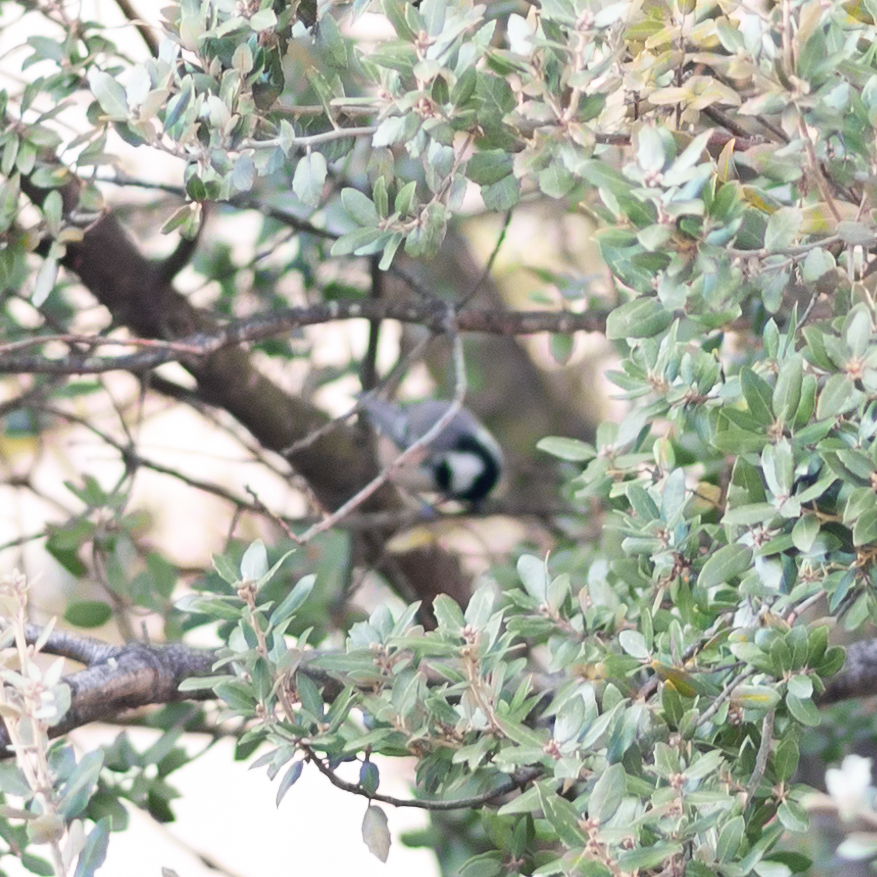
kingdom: Animalia
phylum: Chordata
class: Aves
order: Passeriformes
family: Paridae
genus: Periparus
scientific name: Periparus ater
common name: Coal tit
